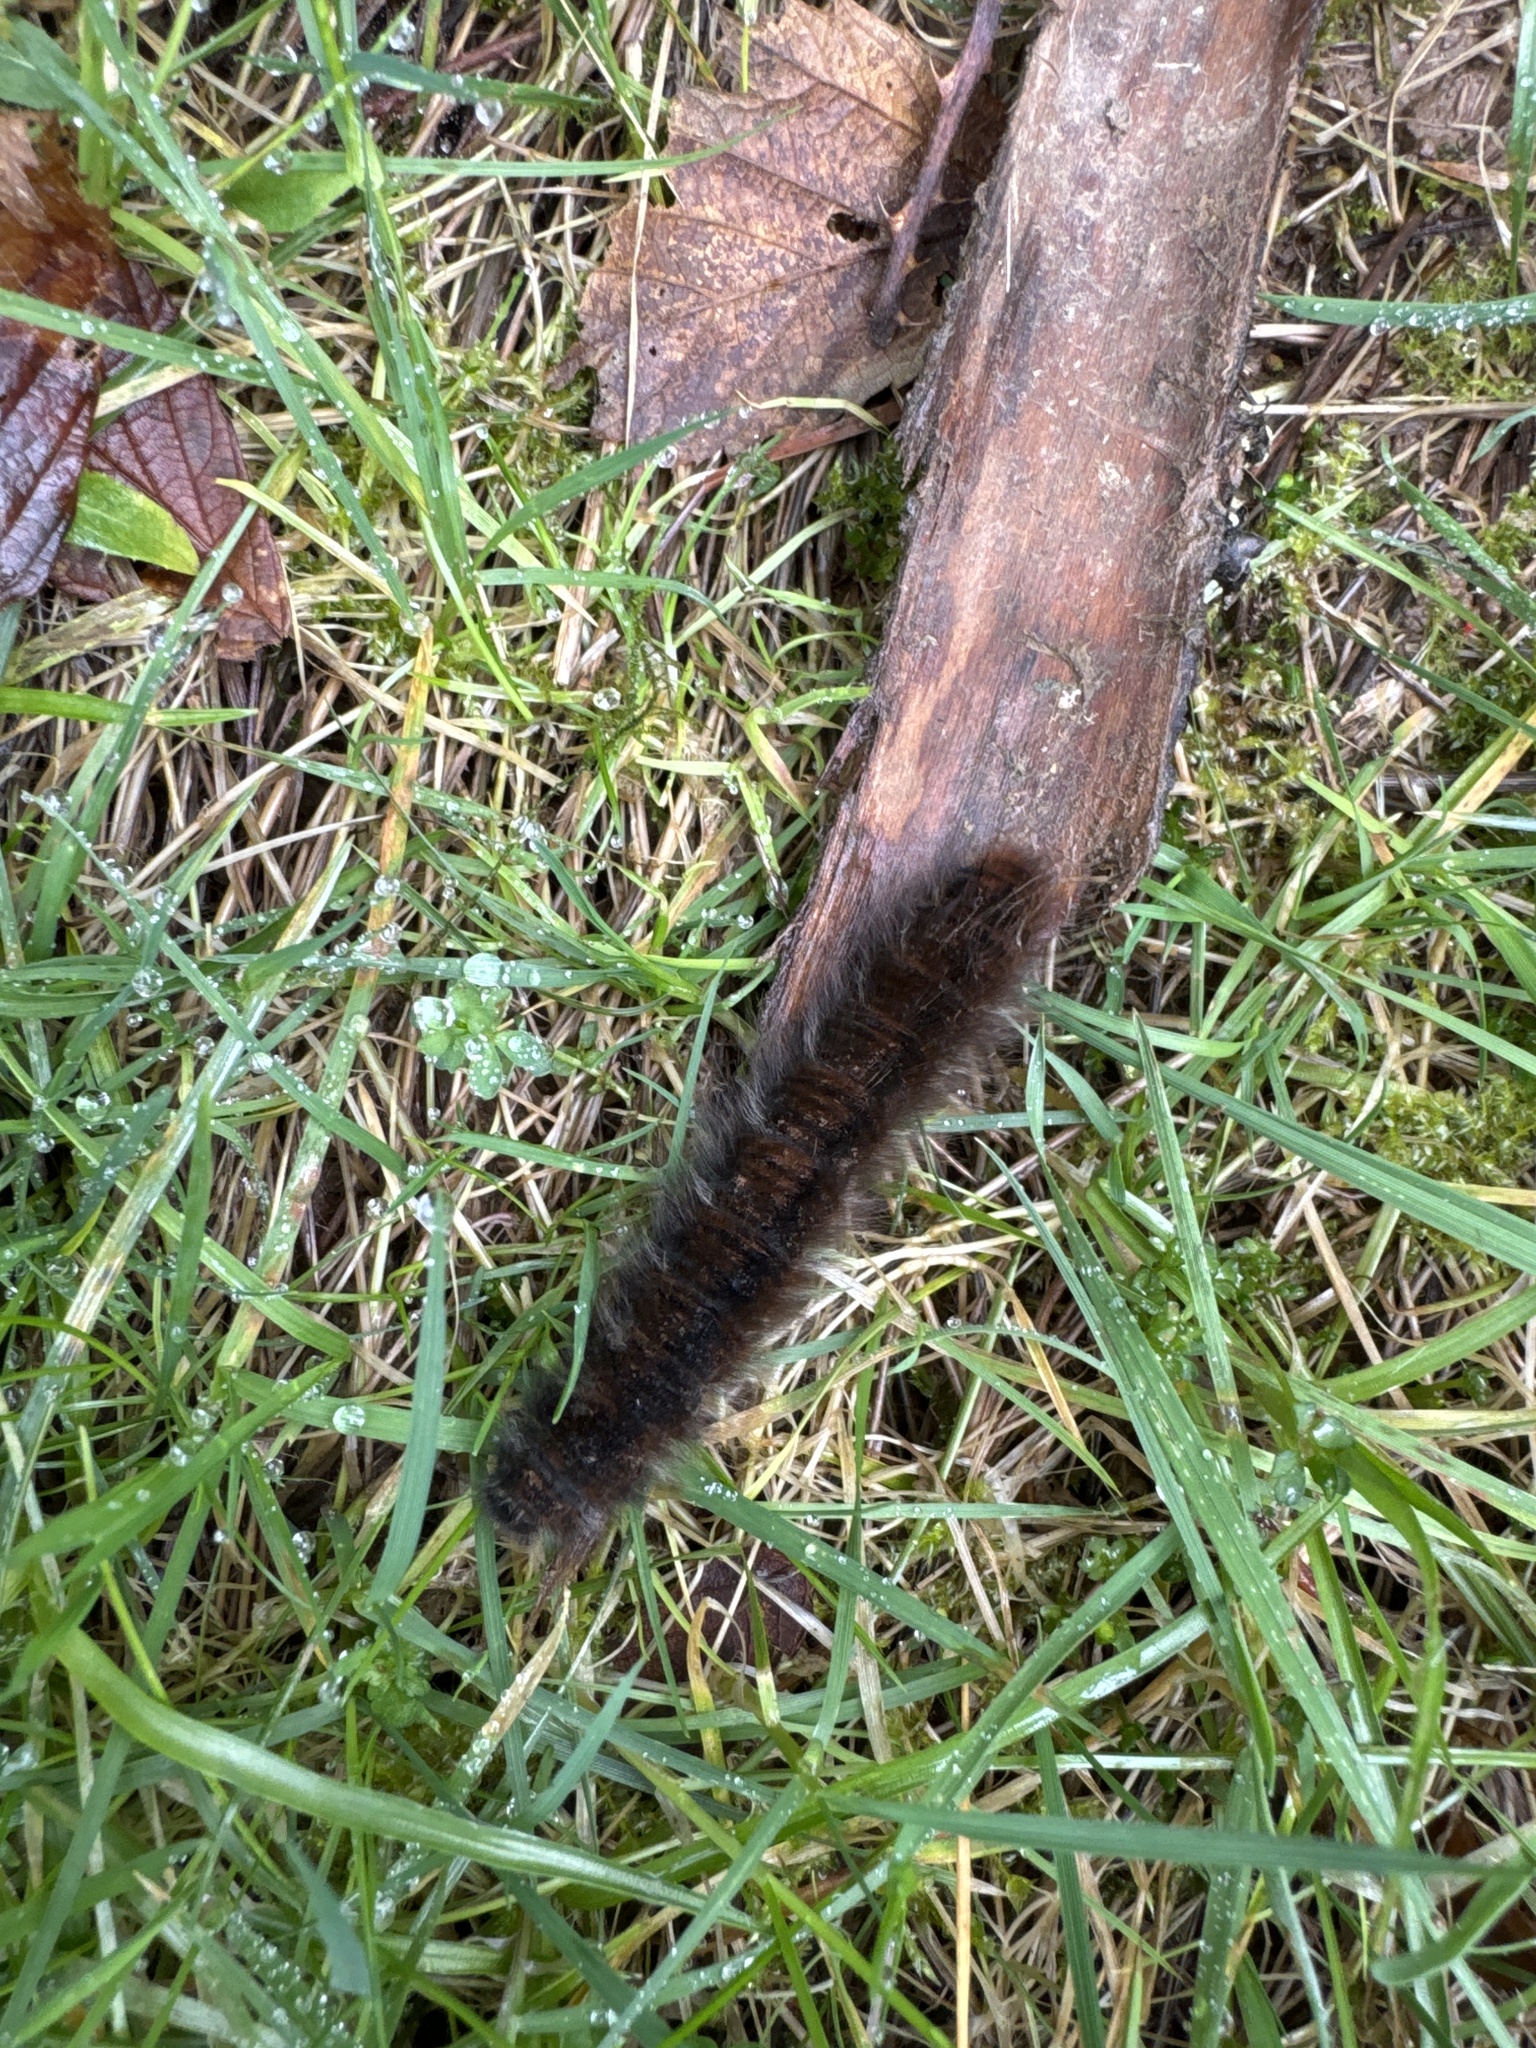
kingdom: Animalia
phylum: Arthropoda
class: Insecta
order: Lepidoptera
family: Lasiocampidae
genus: Macrothylacia
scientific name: Macrothylacia rubi
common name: Fox moth
